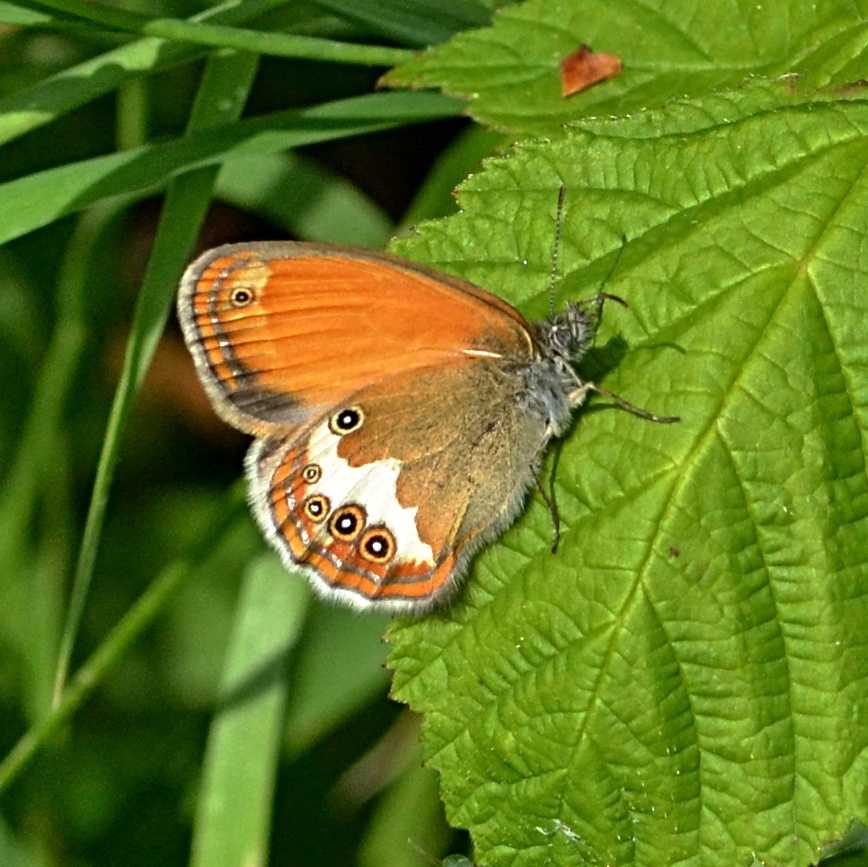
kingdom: Animalia
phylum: Arthropoda
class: Insecta
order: Lepidoptera
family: Nymphalidae
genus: Coenonympha
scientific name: Coenonympha arcania
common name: Pearly heath
